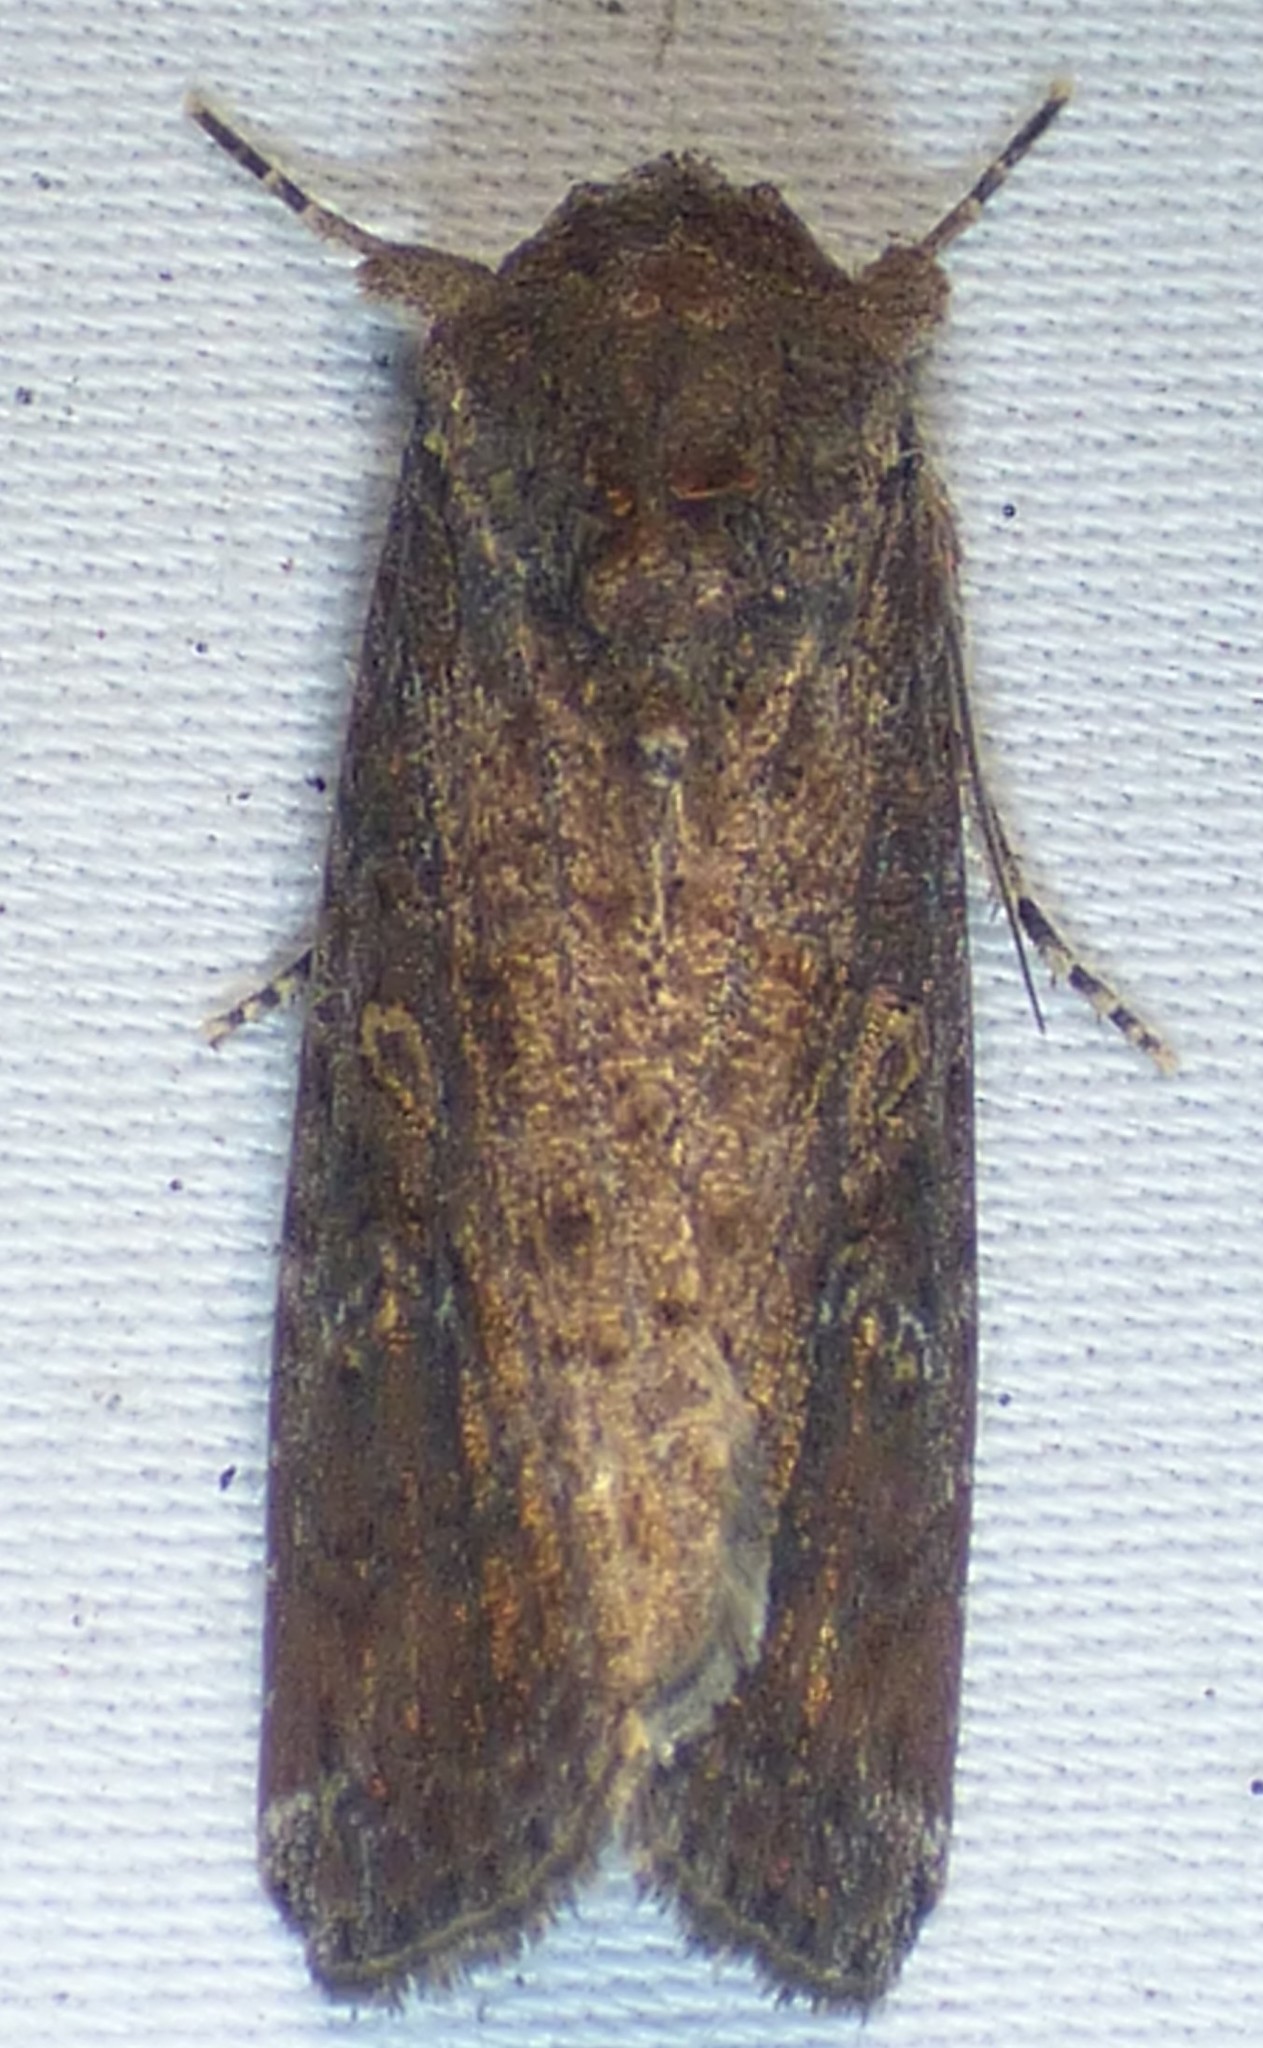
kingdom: Animalia
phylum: Arthropoda
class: Insecta
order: Lepidoptera
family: Noctuidae
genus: Spodoptera
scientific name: Spodoptera frugiperda
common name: Fall armyworm
